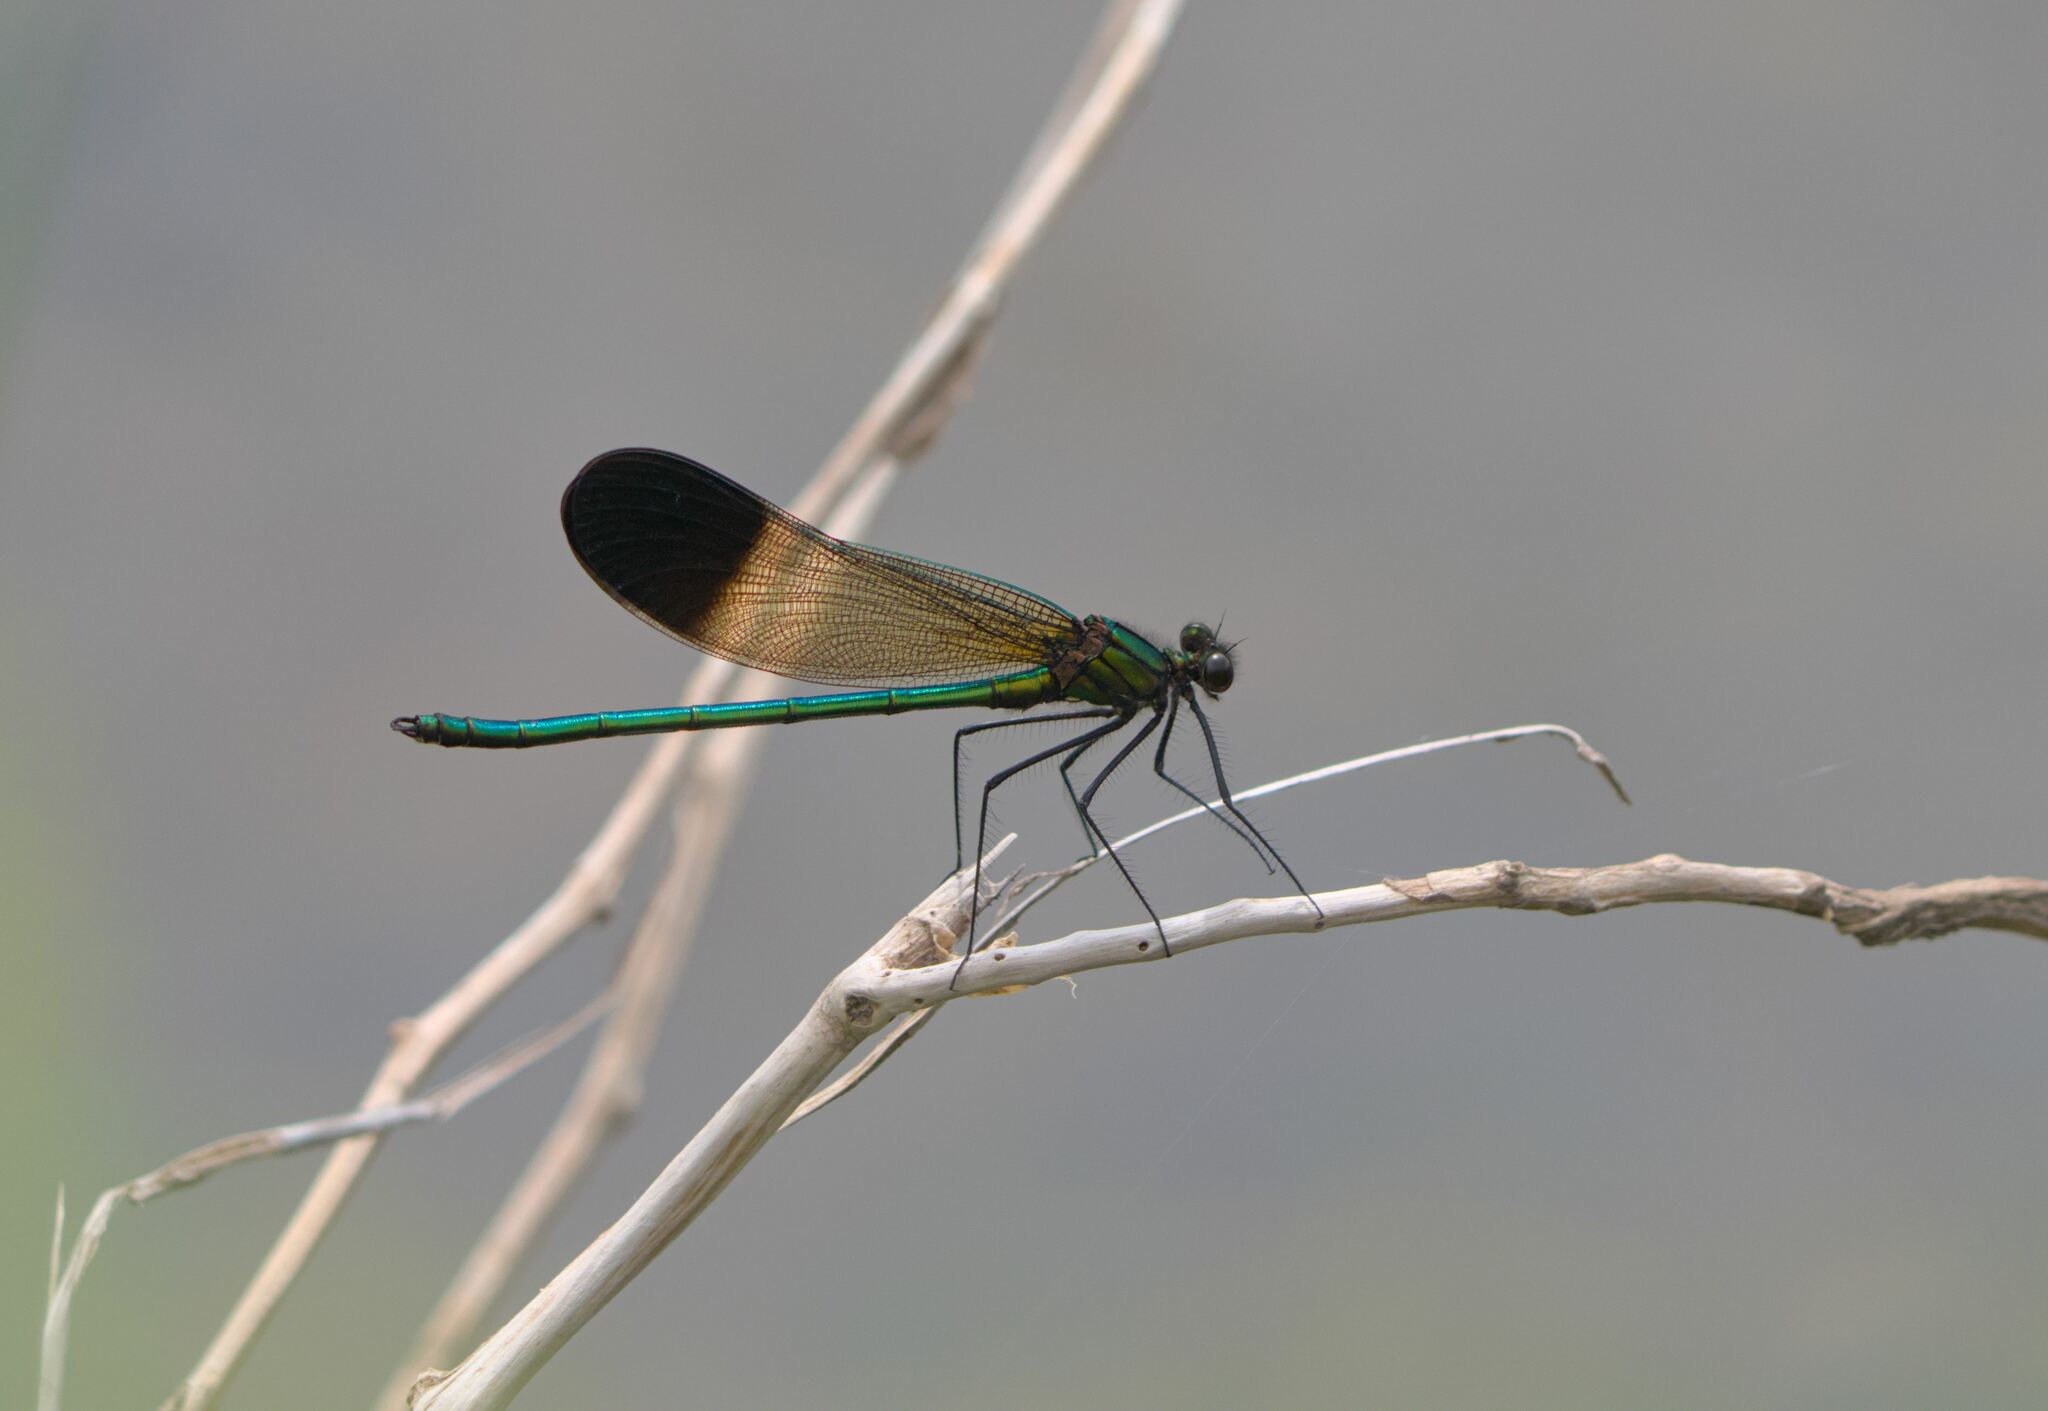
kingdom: Animalia
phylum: Arthropoda
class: Insecta
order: Odonata
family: Calopterygidae
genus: Calopteryx
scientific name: Calopteryx aequabilis
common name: River jewelwing
